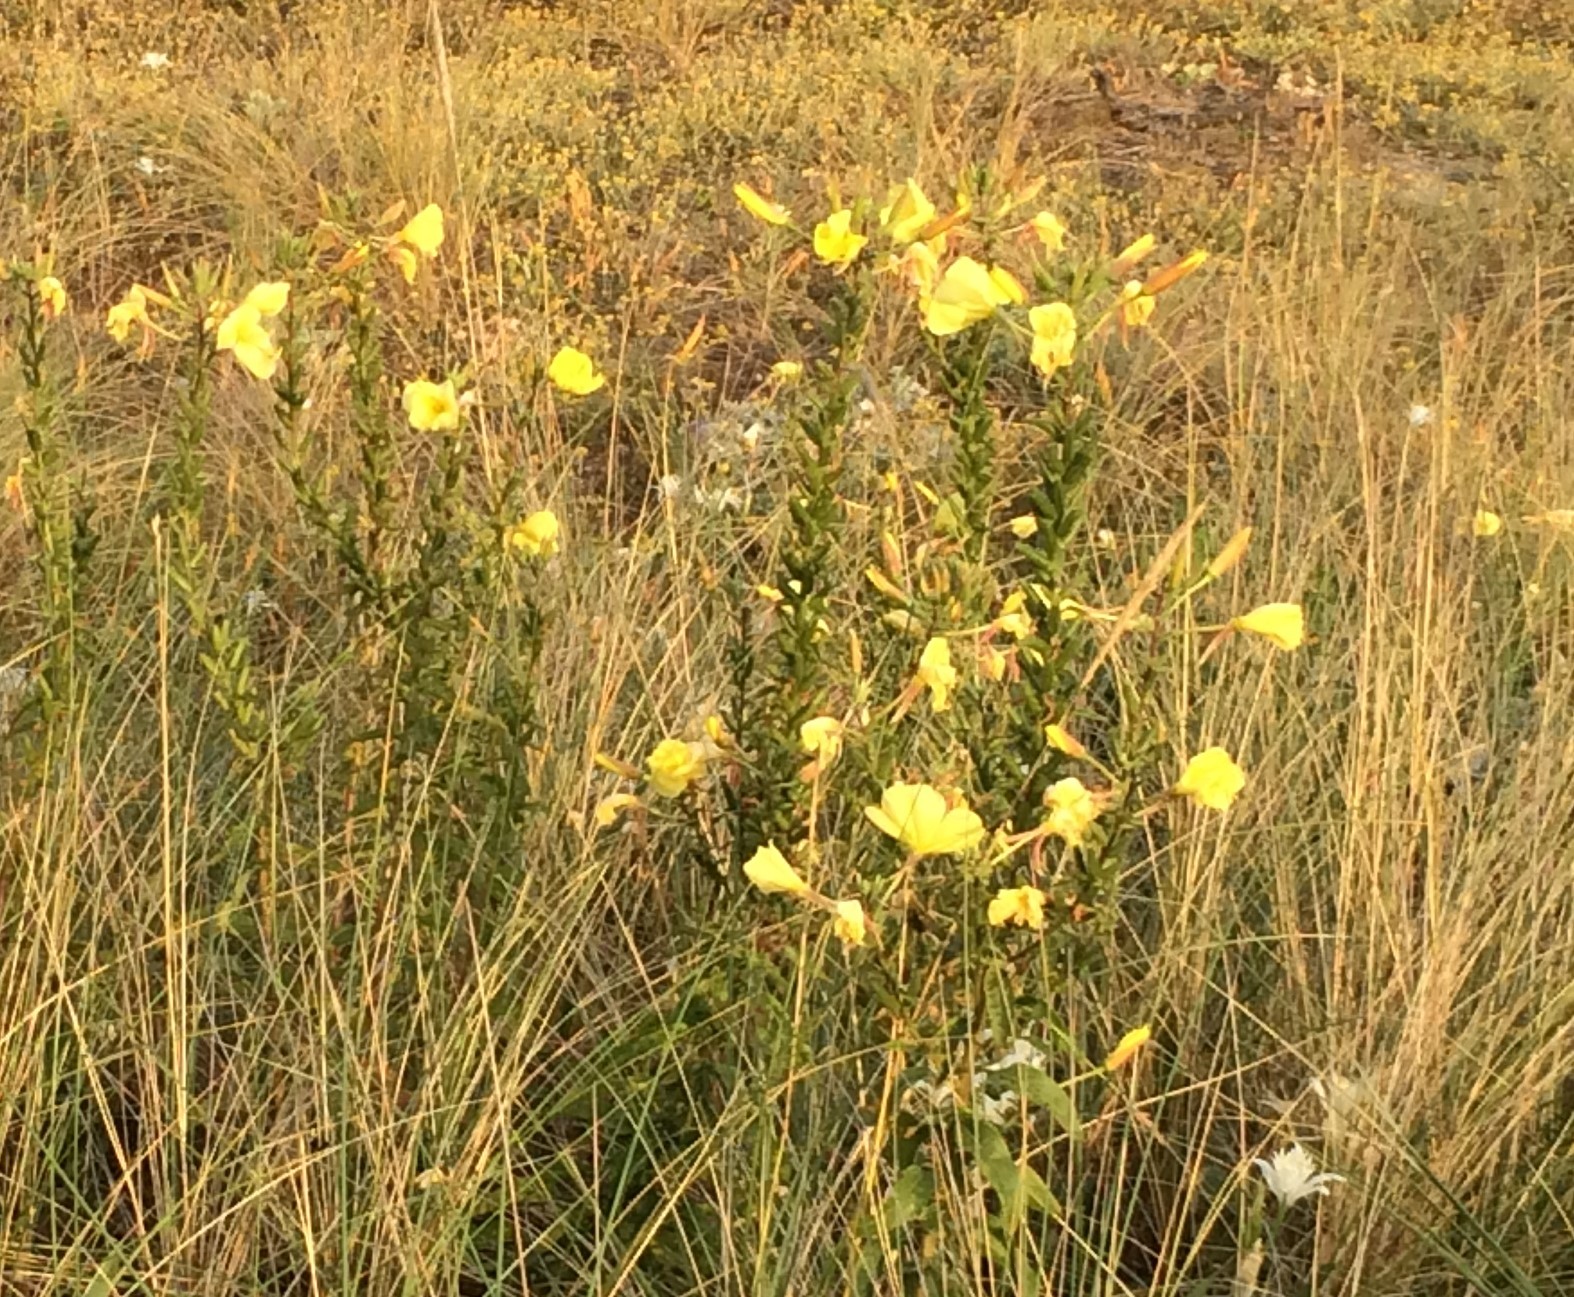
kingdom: Plantae
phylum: Tracheophyta
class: Magnoliopsida
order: Myrtales
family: Onagraceae
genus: Oenothera
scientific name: Oenothera glazioviana
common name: Large-flowered evening-primrose
